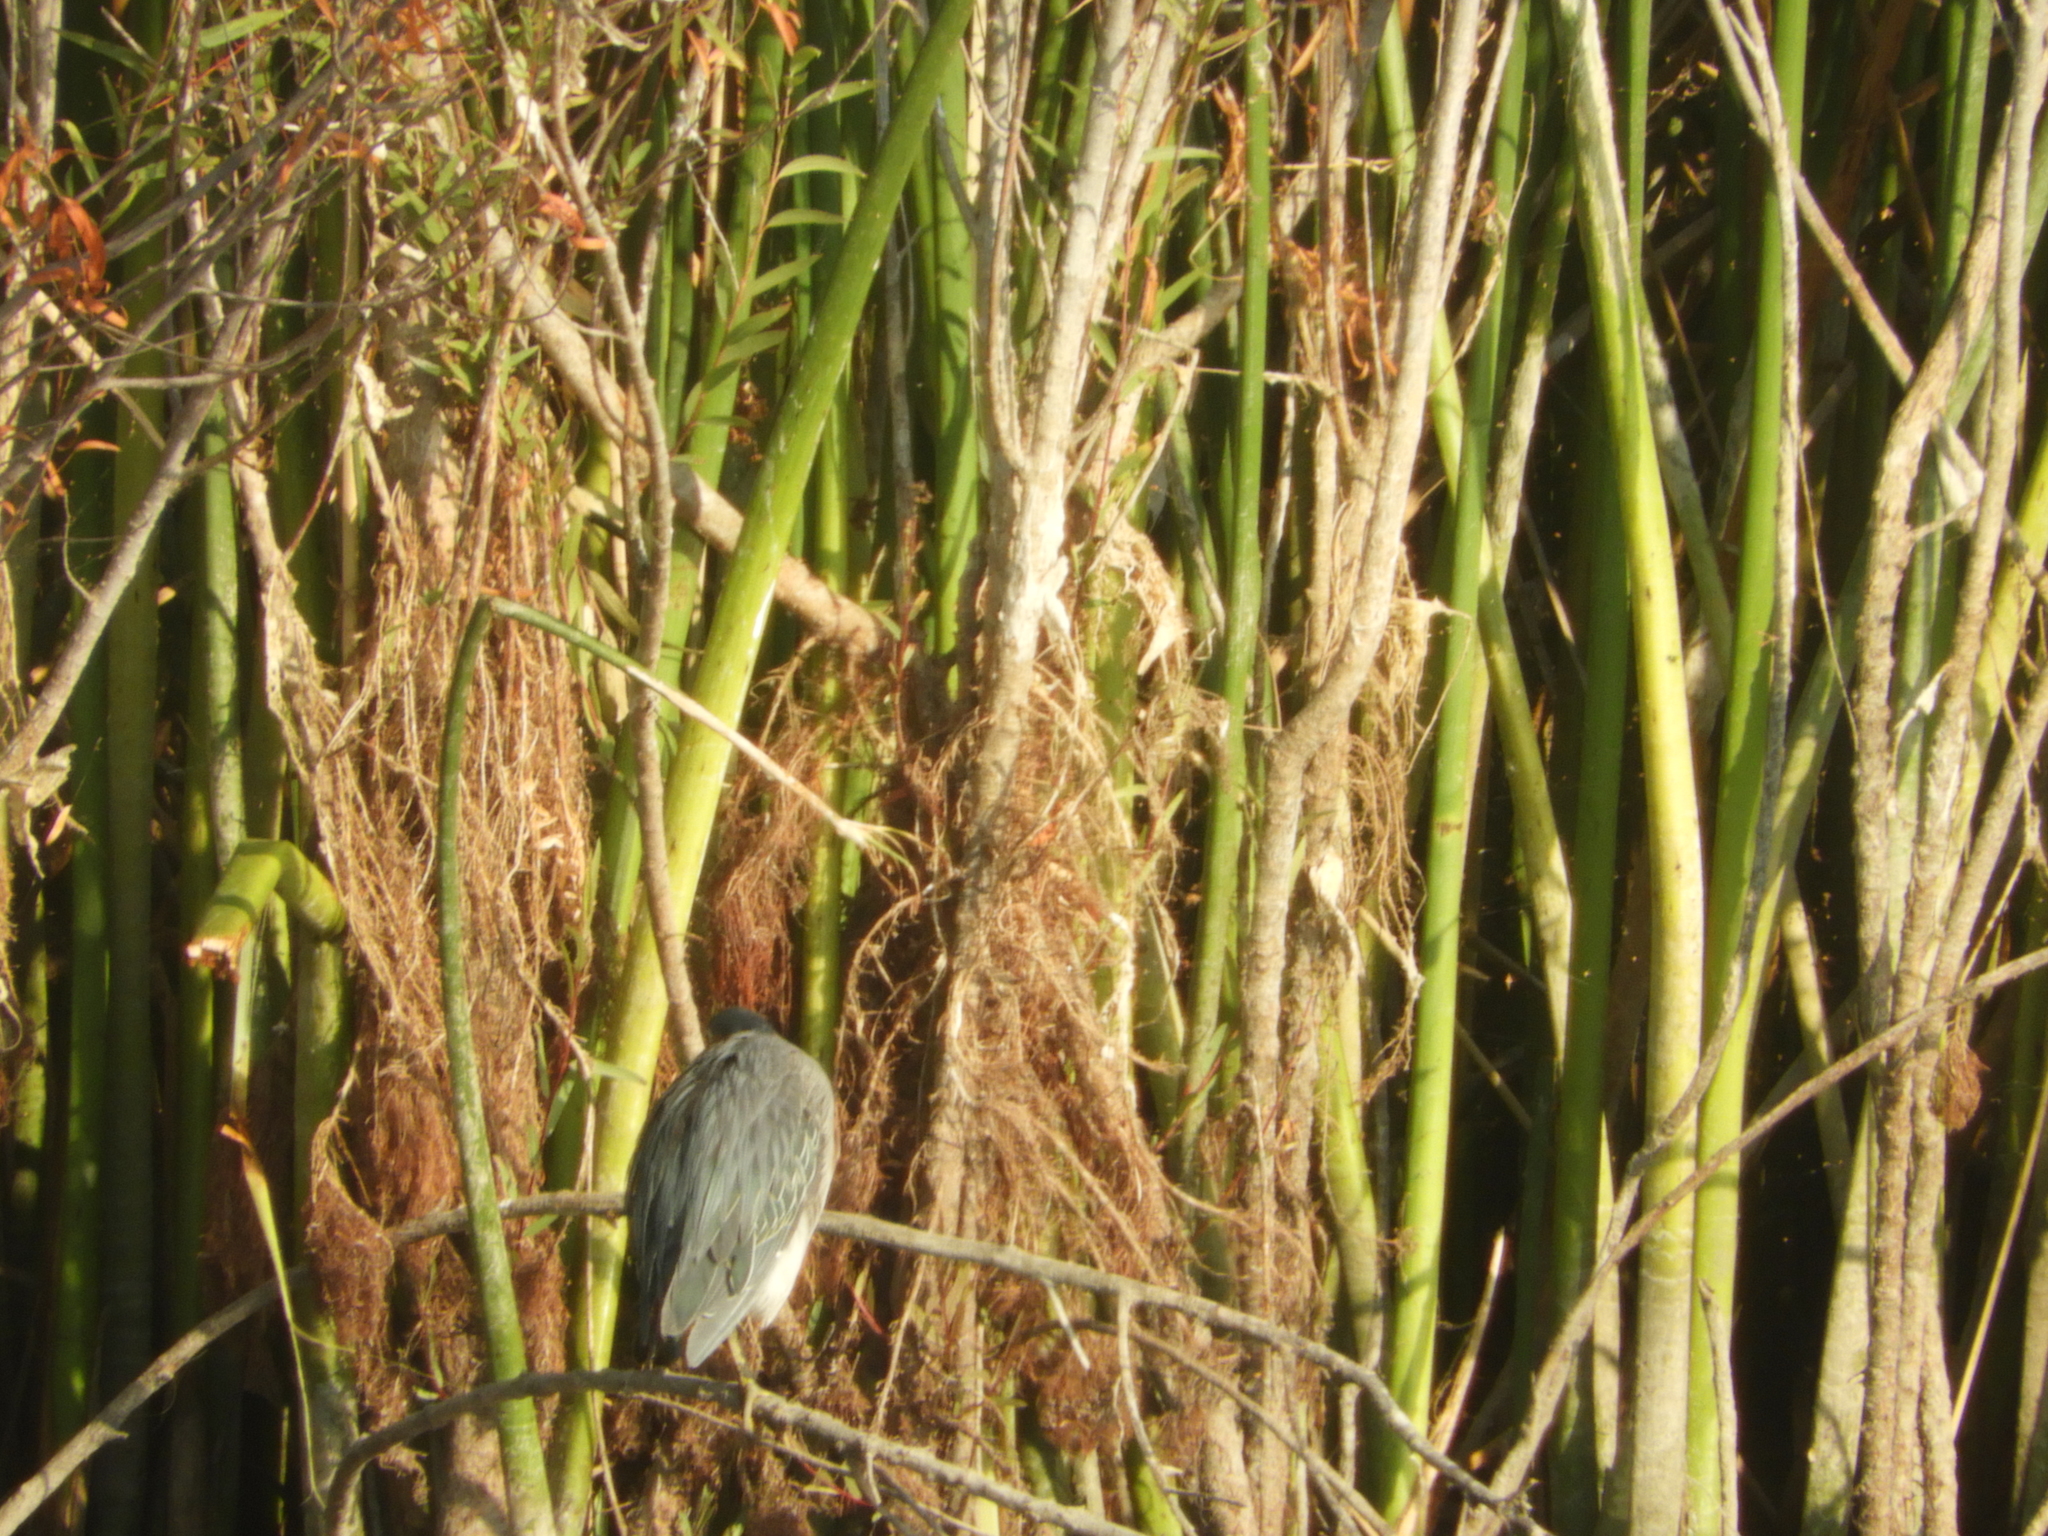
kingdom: Animalia
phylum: Chordata
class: Aves
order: Pelecaniformes
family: Ardeidae
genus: Butorides
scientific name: Butorides virescens
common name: Green heron
